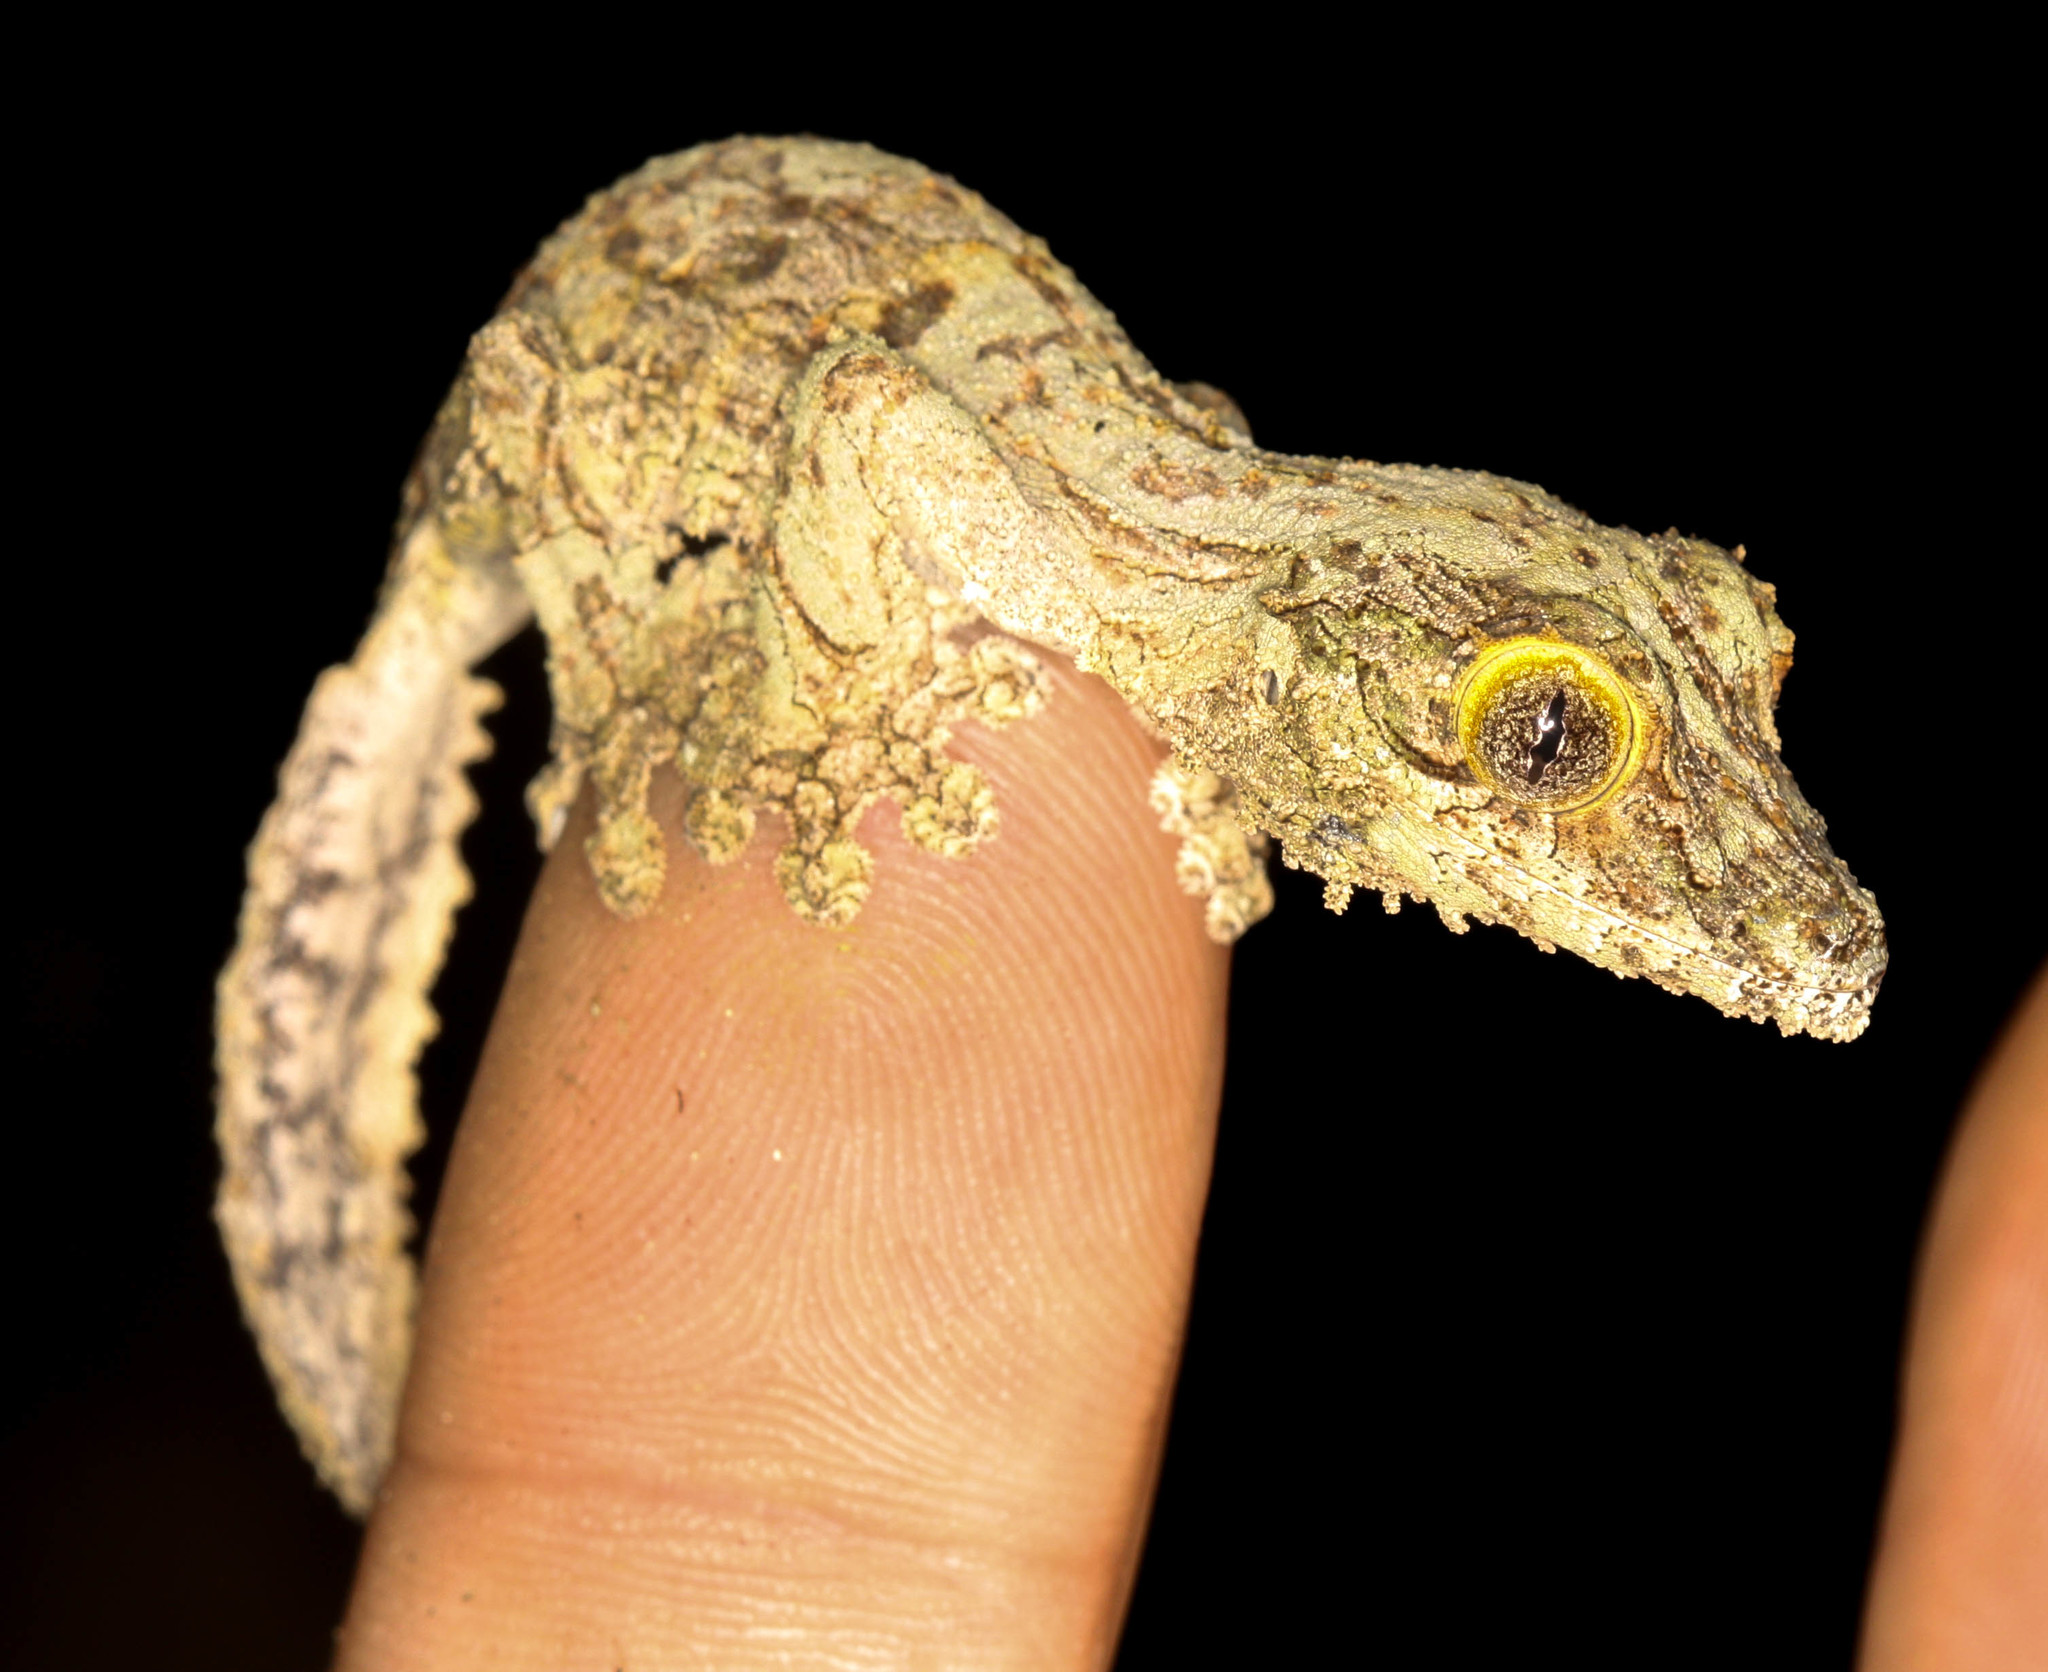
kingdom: Animalia
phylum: Chordata
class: Squamata
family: Gekkonidae
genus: Uroplatus
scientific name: Uroplatus sikorae
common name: Southern flat-tail gecko
